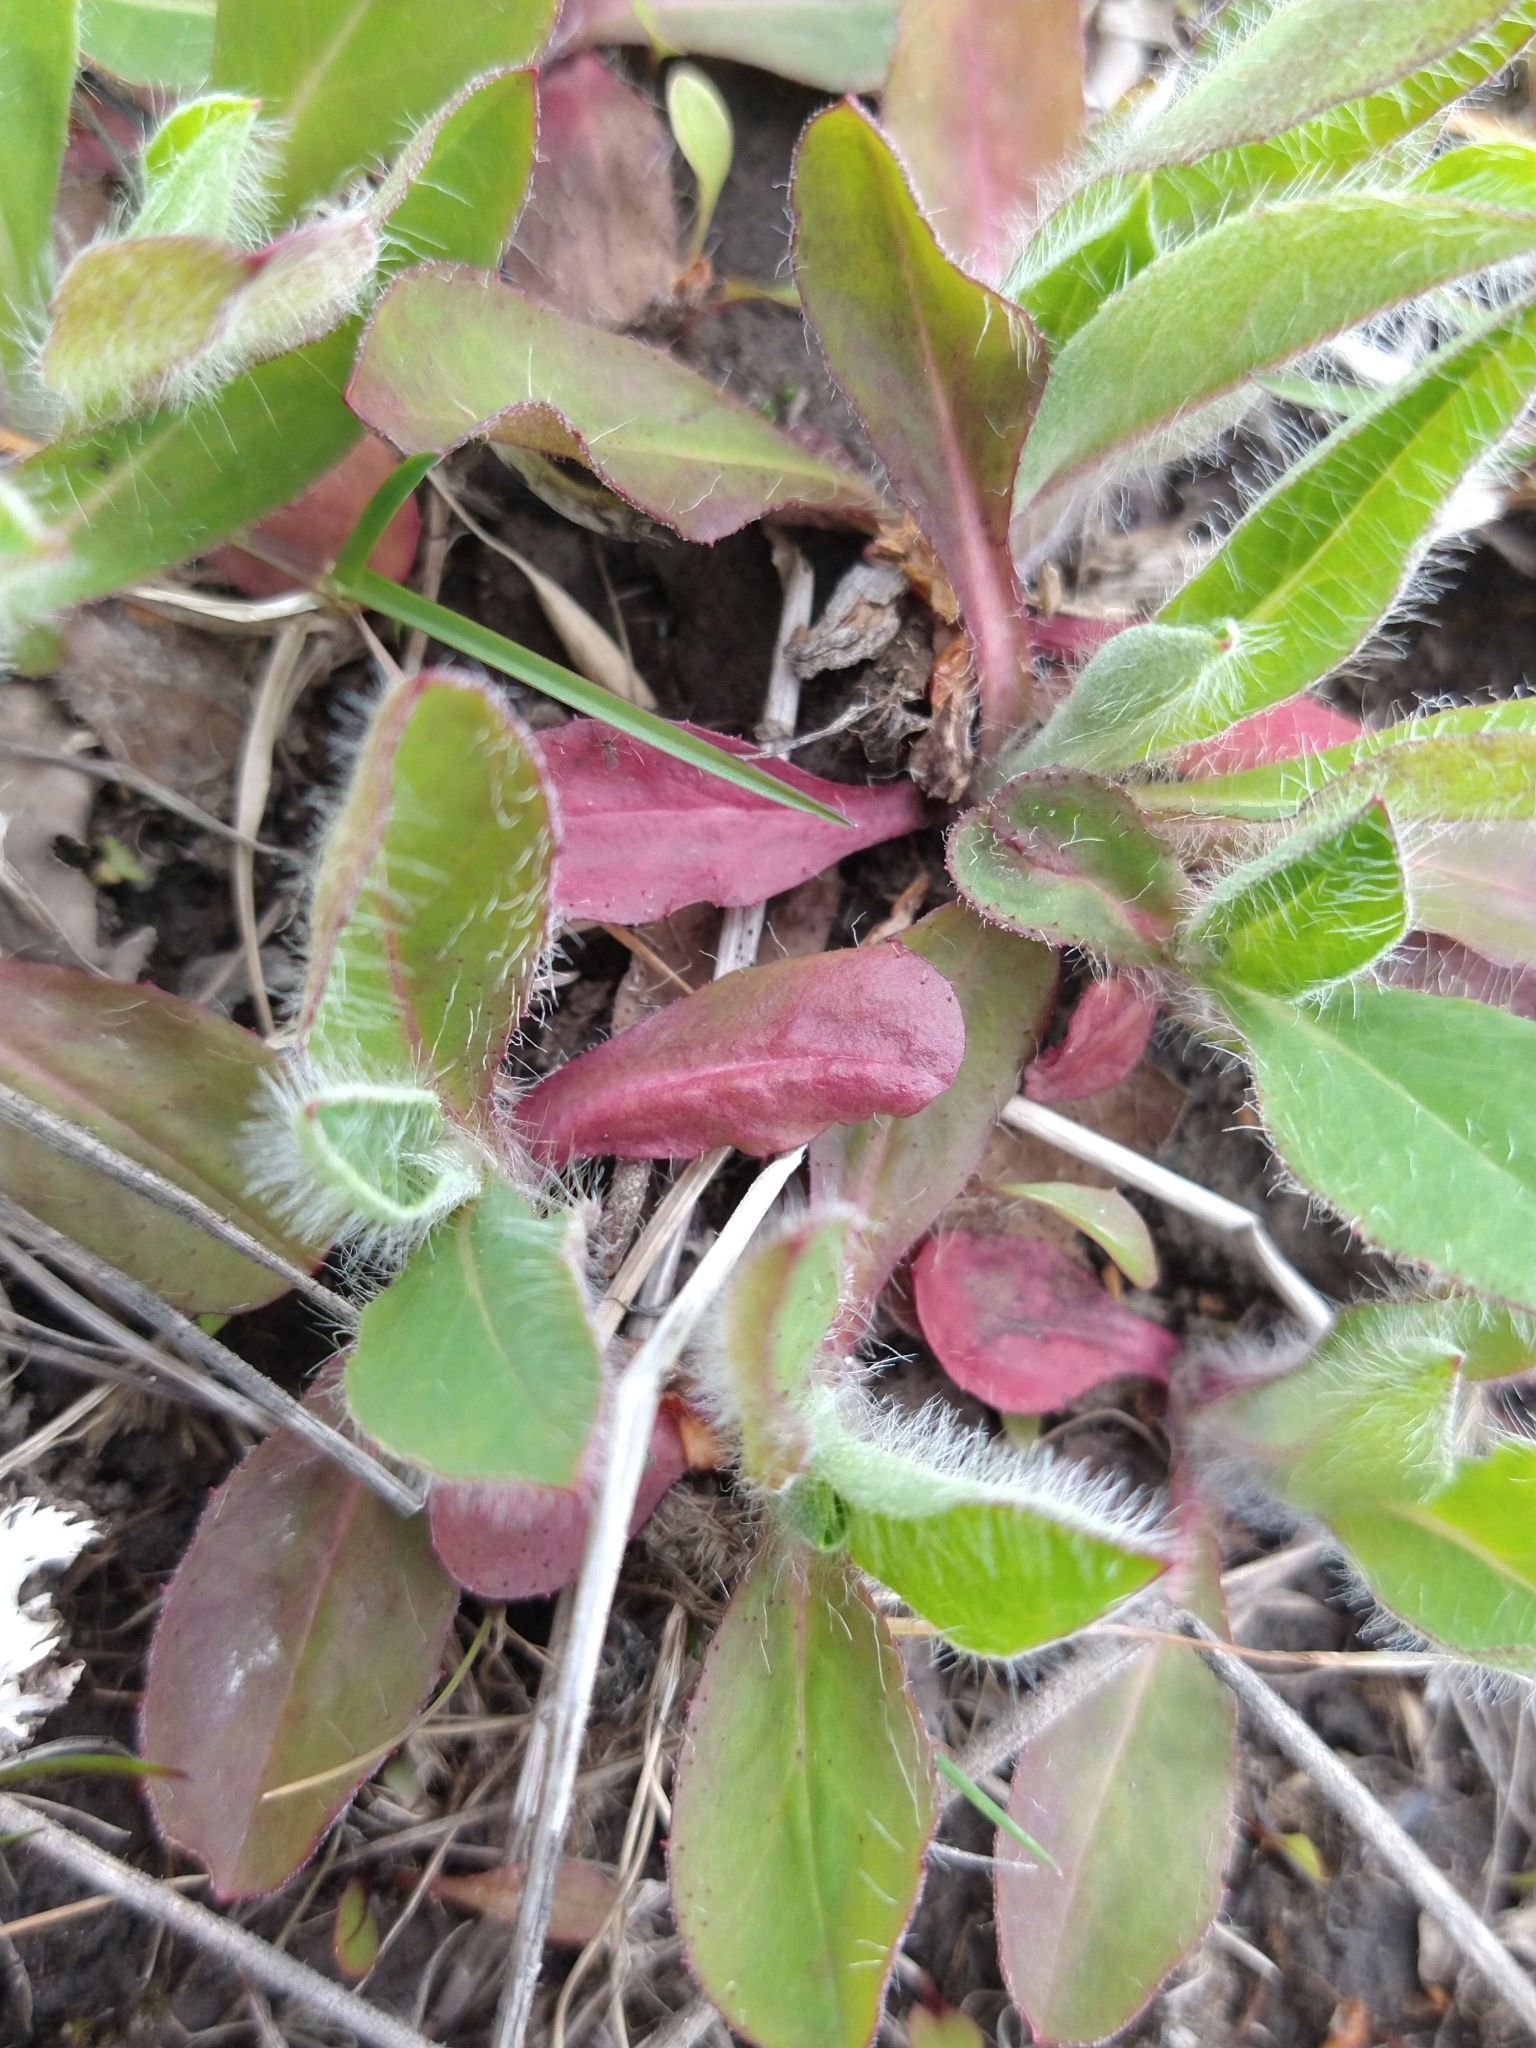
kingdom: Plantae
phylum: Tracheophyta
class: Magnoliopsida
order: Asterales
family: Asteraceae
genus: Pilosella
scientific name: Pilosella officinarum
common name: Mouse-ear hawkweed
